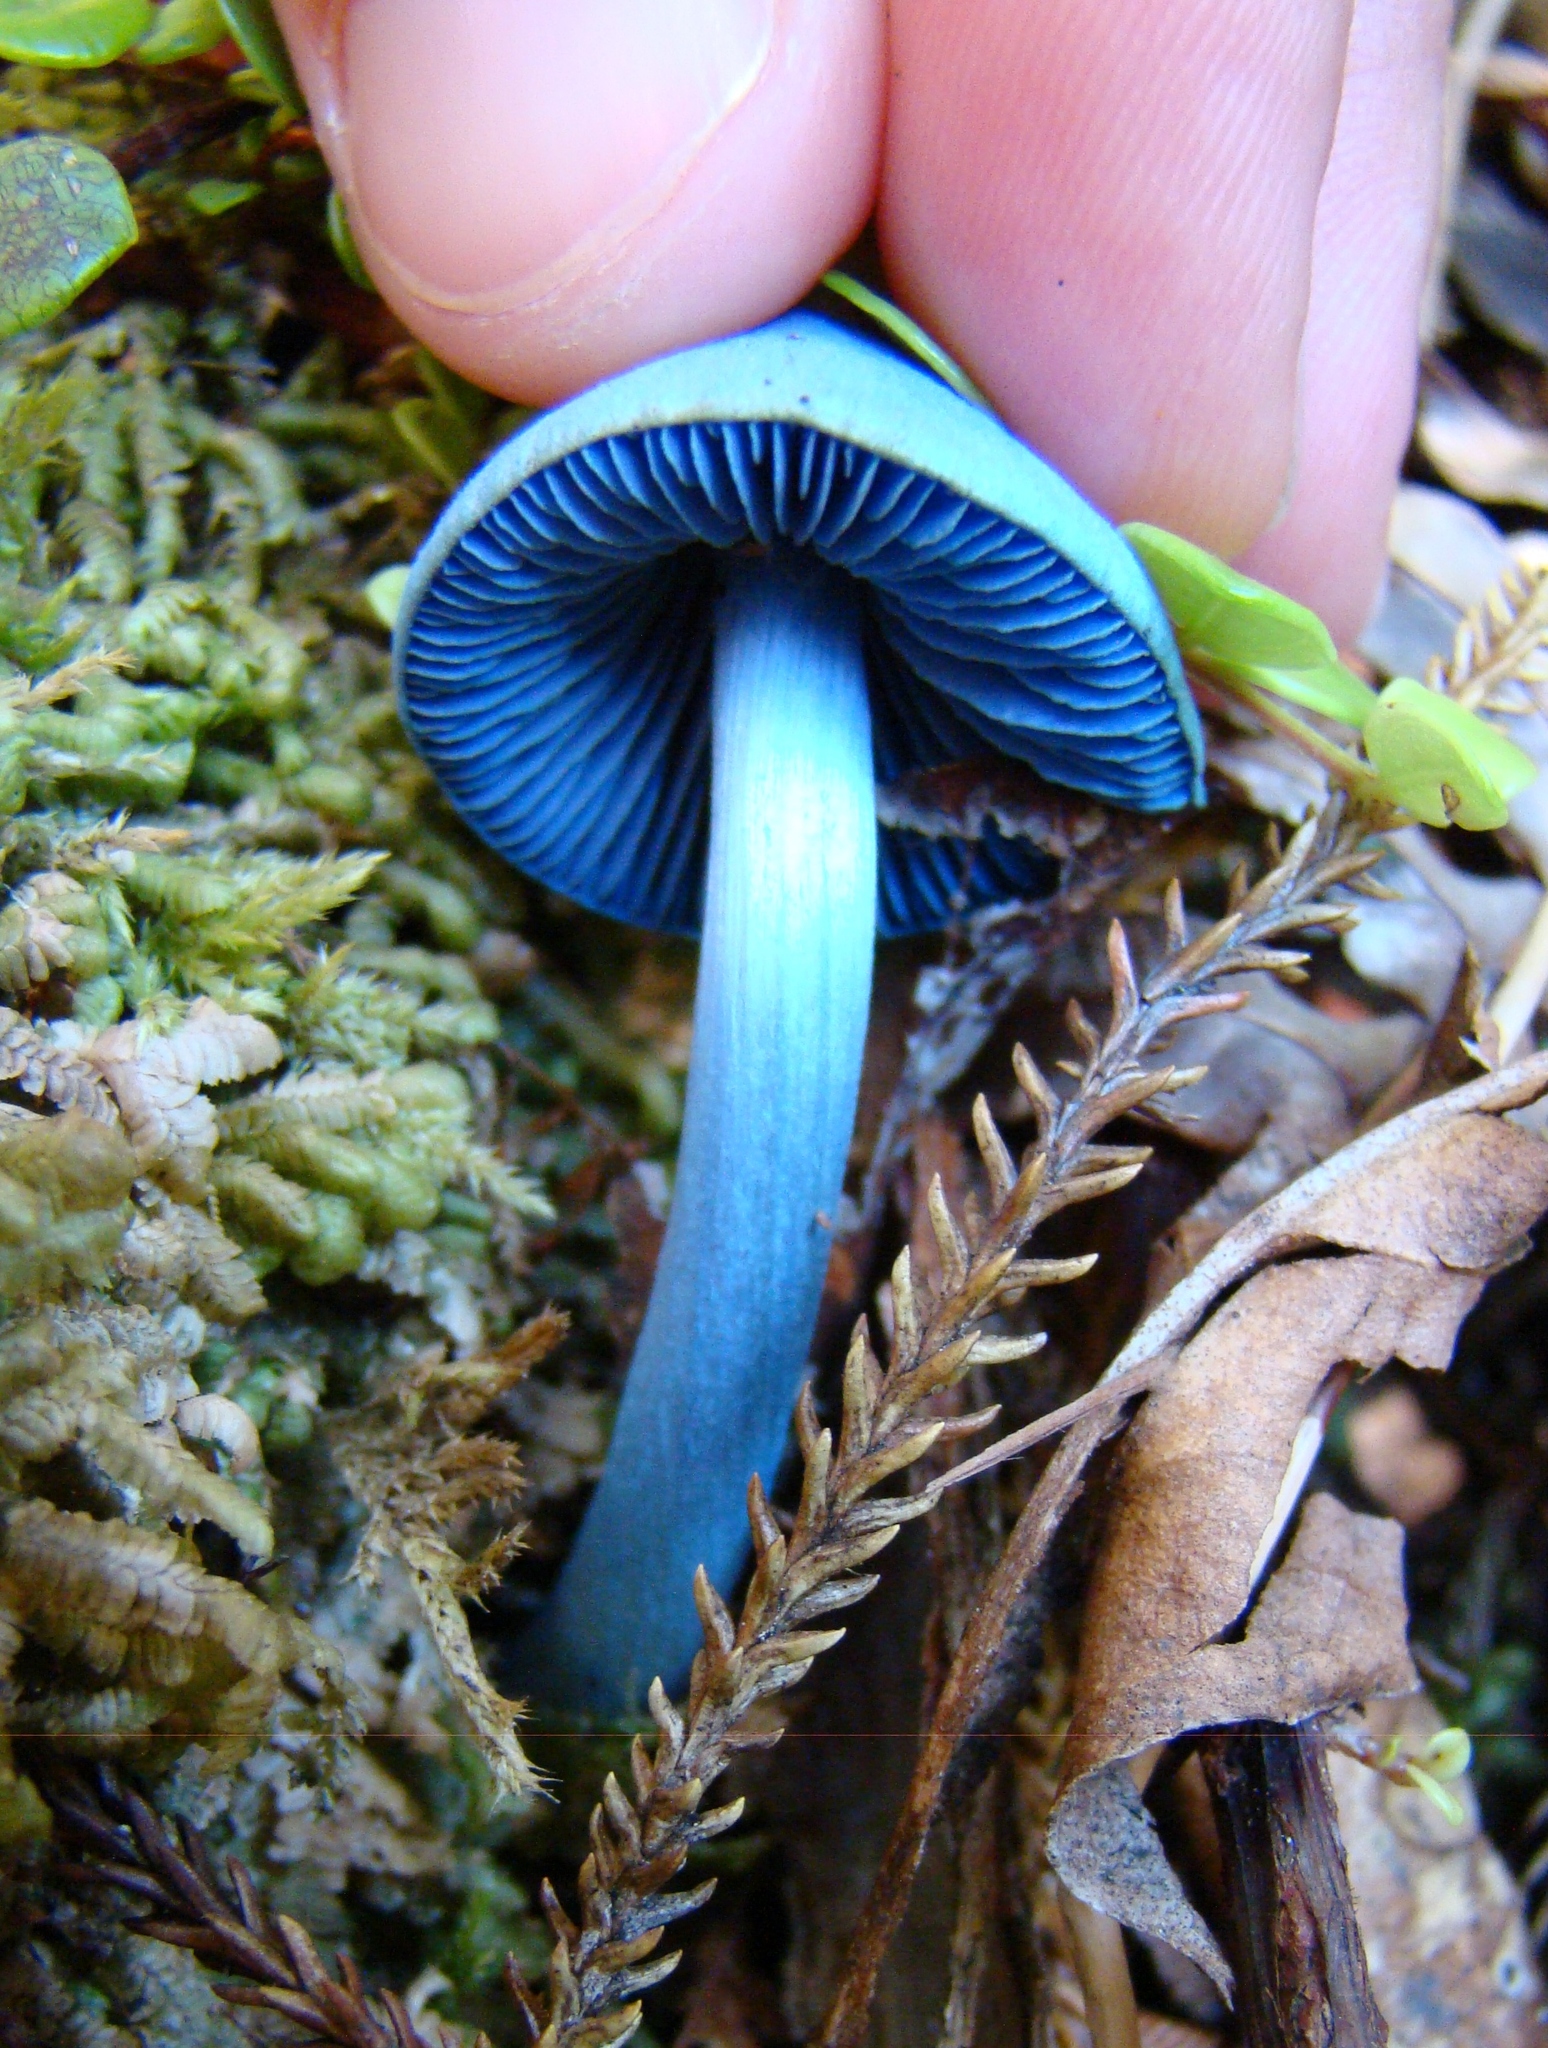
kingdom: Fungi
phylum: Basidiomycota
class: Agaricomycetes
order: Agaricales
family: Entolomataceae
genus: Entoloma
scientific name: Entoloma hochstetteri
